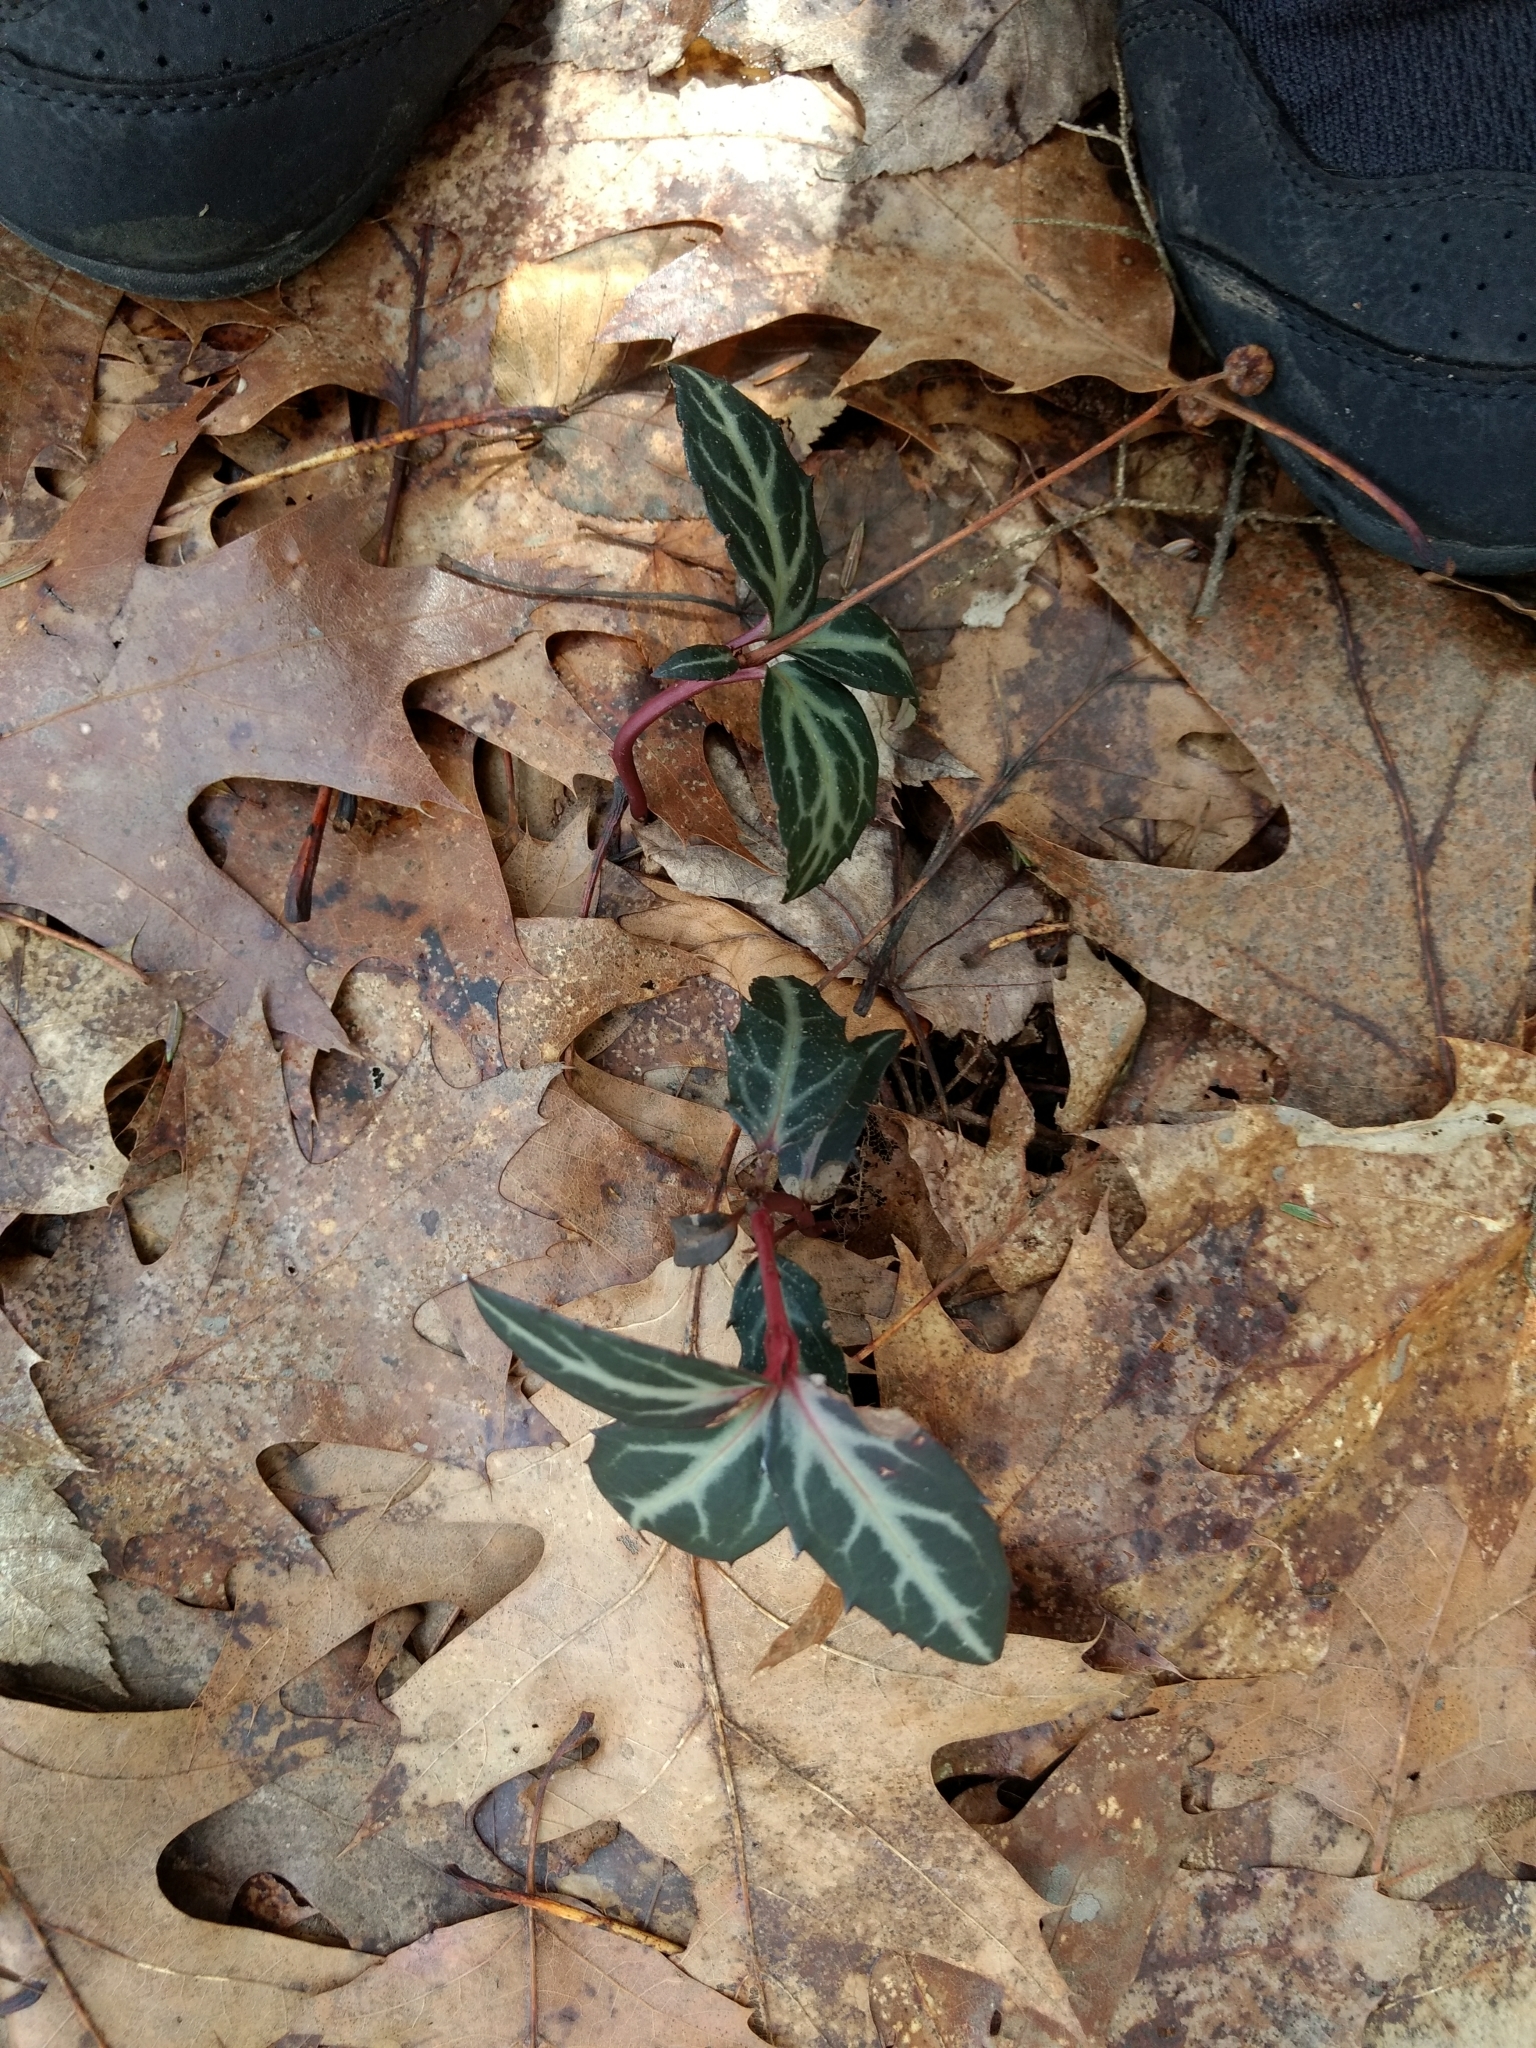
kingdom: Plantae
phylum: Tracheophyta
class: Magnoliopsida
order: Ericales
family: Ericaceae
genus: Chimaphila
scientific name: Chimaphila maculata
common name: Spotted pipsissewa
